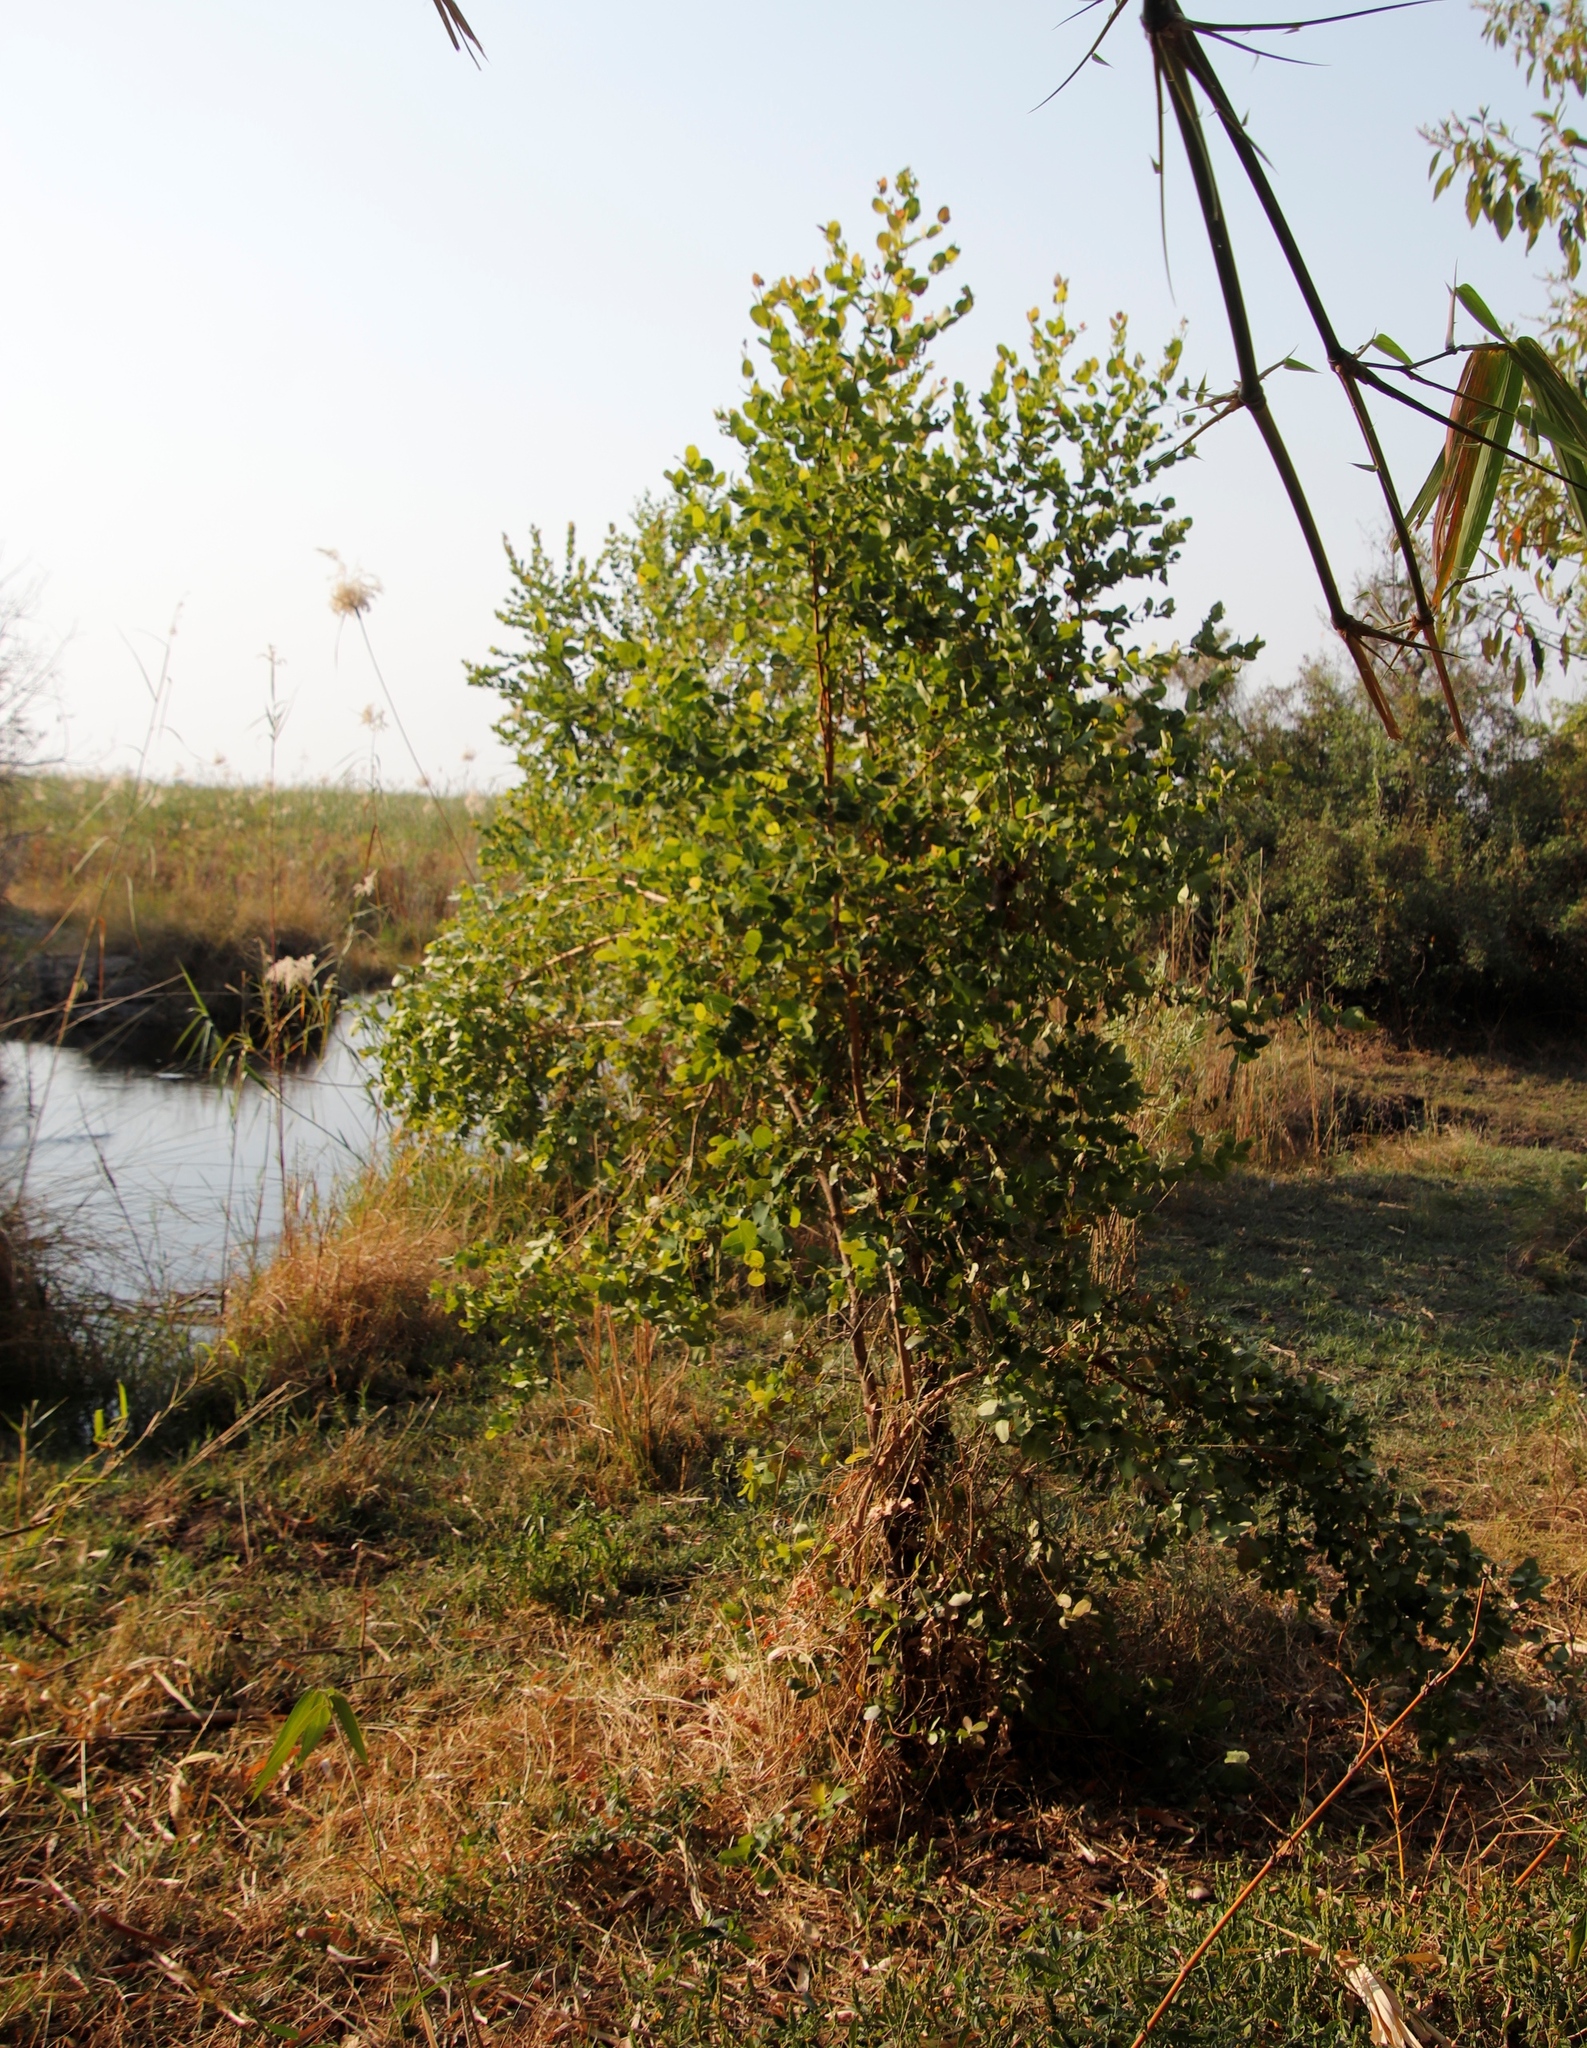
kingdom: Plantae
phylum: Tracheophyta
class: Magnoliopsida
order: Myrtales
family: Myrtaceae
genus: Syzygium
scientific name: Syzygium cordatum
